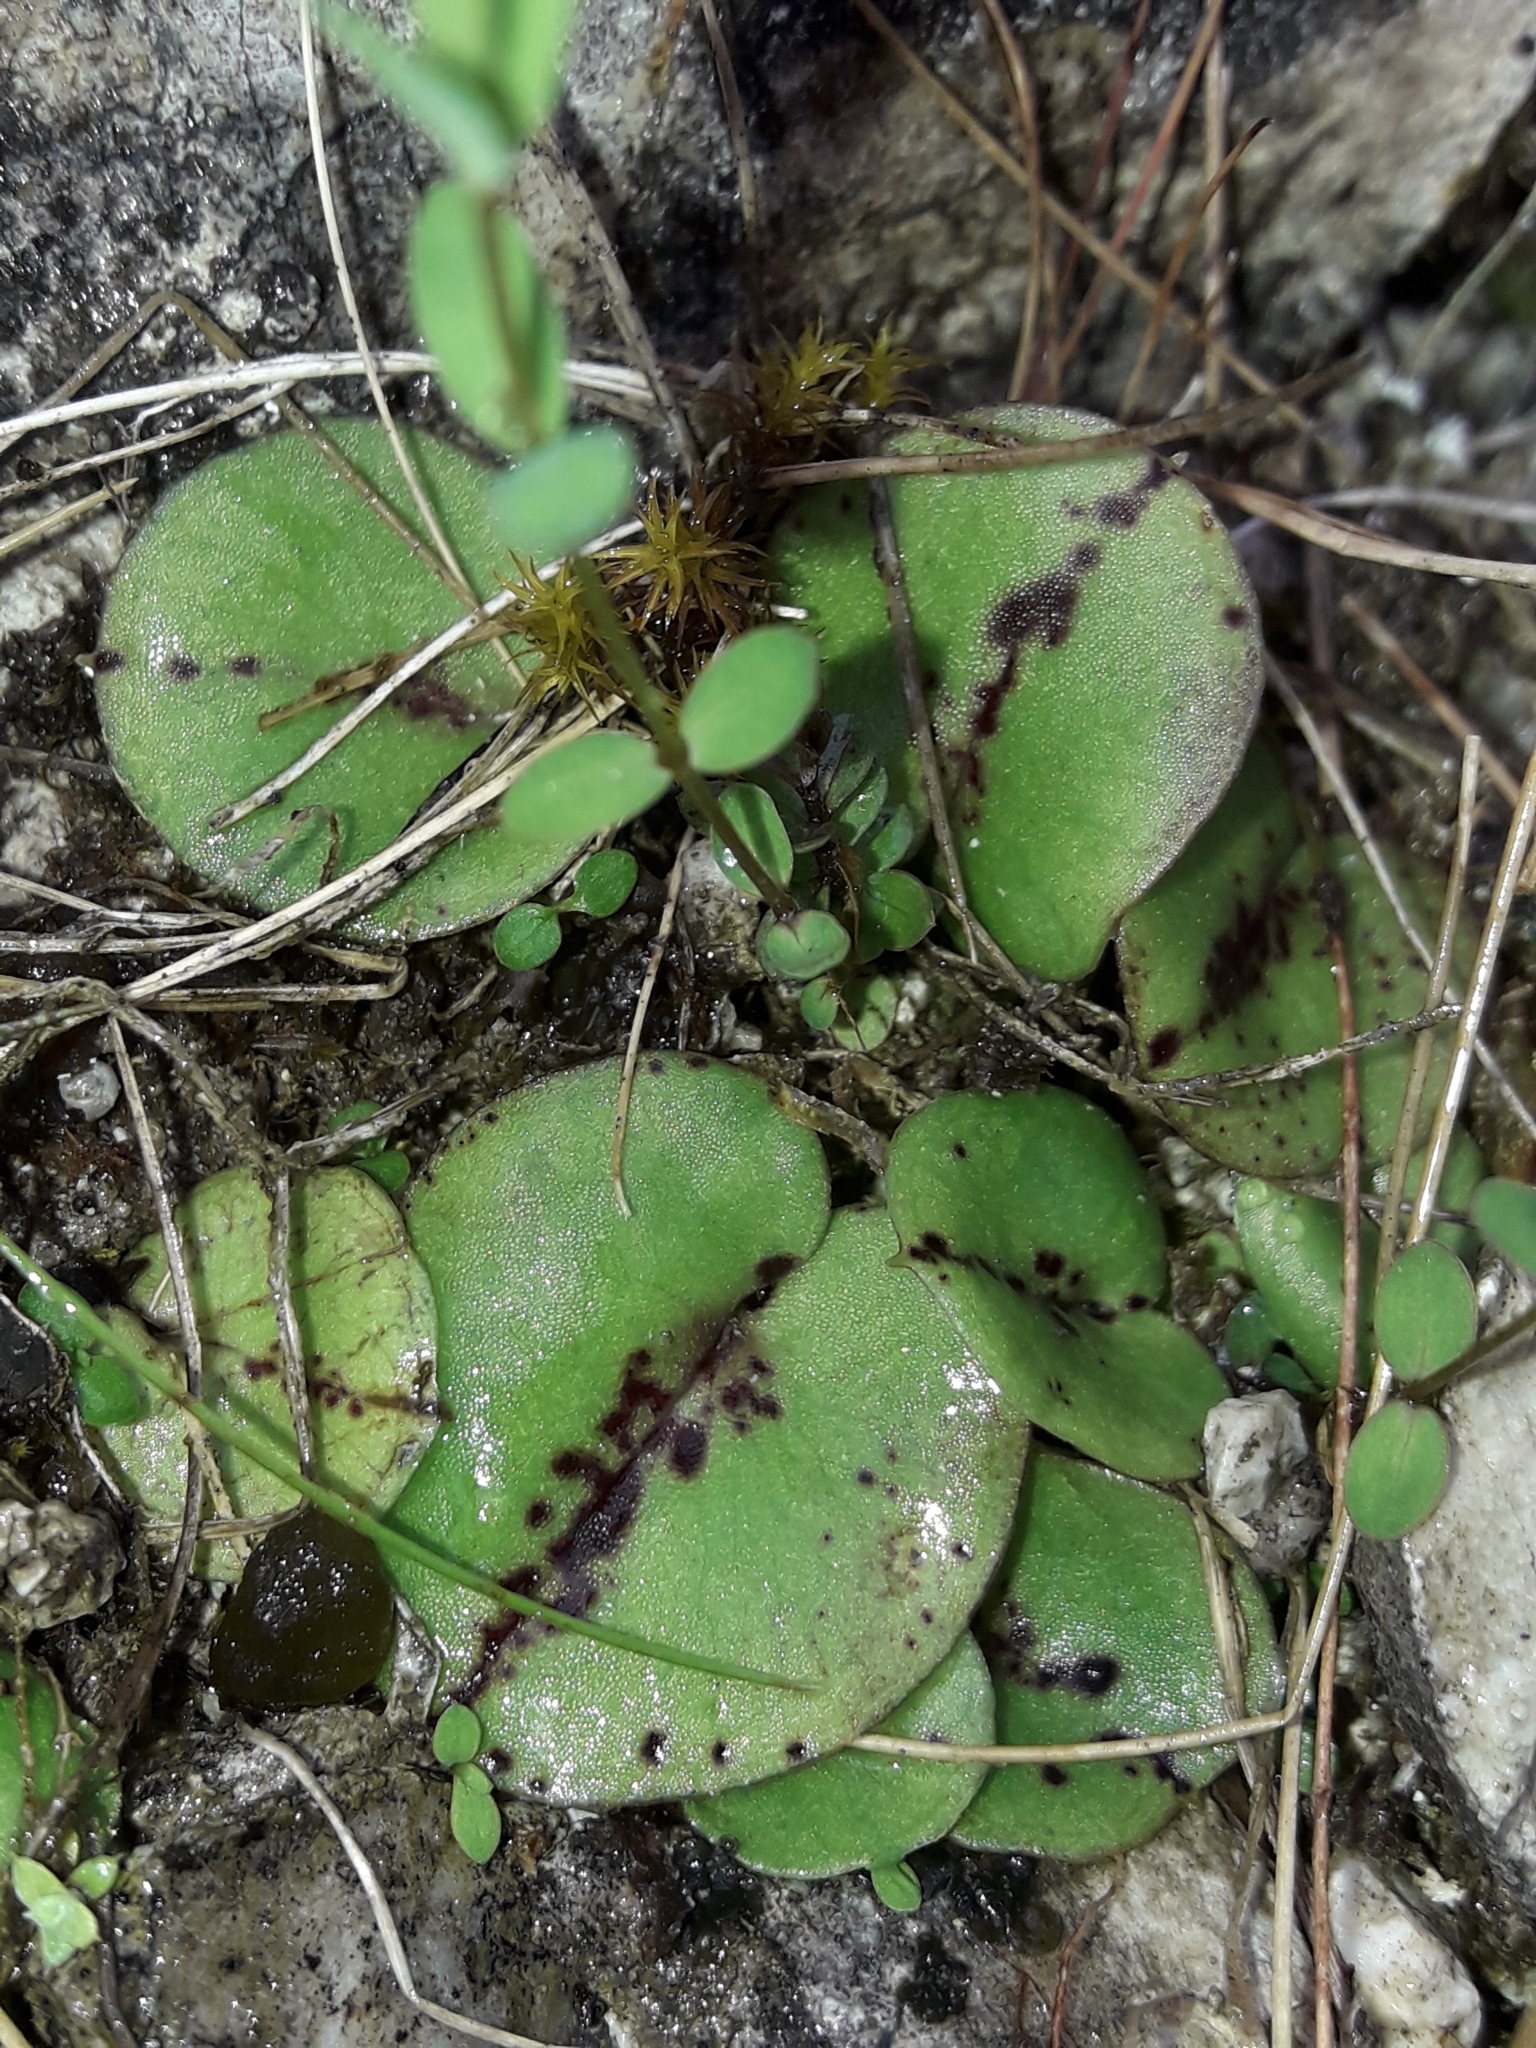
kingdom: Plantae
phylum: Tracheophyta
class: Liliopsida
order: Asparagales
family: Orchidaceae
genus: Corybas
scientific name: Corybas macranthus
